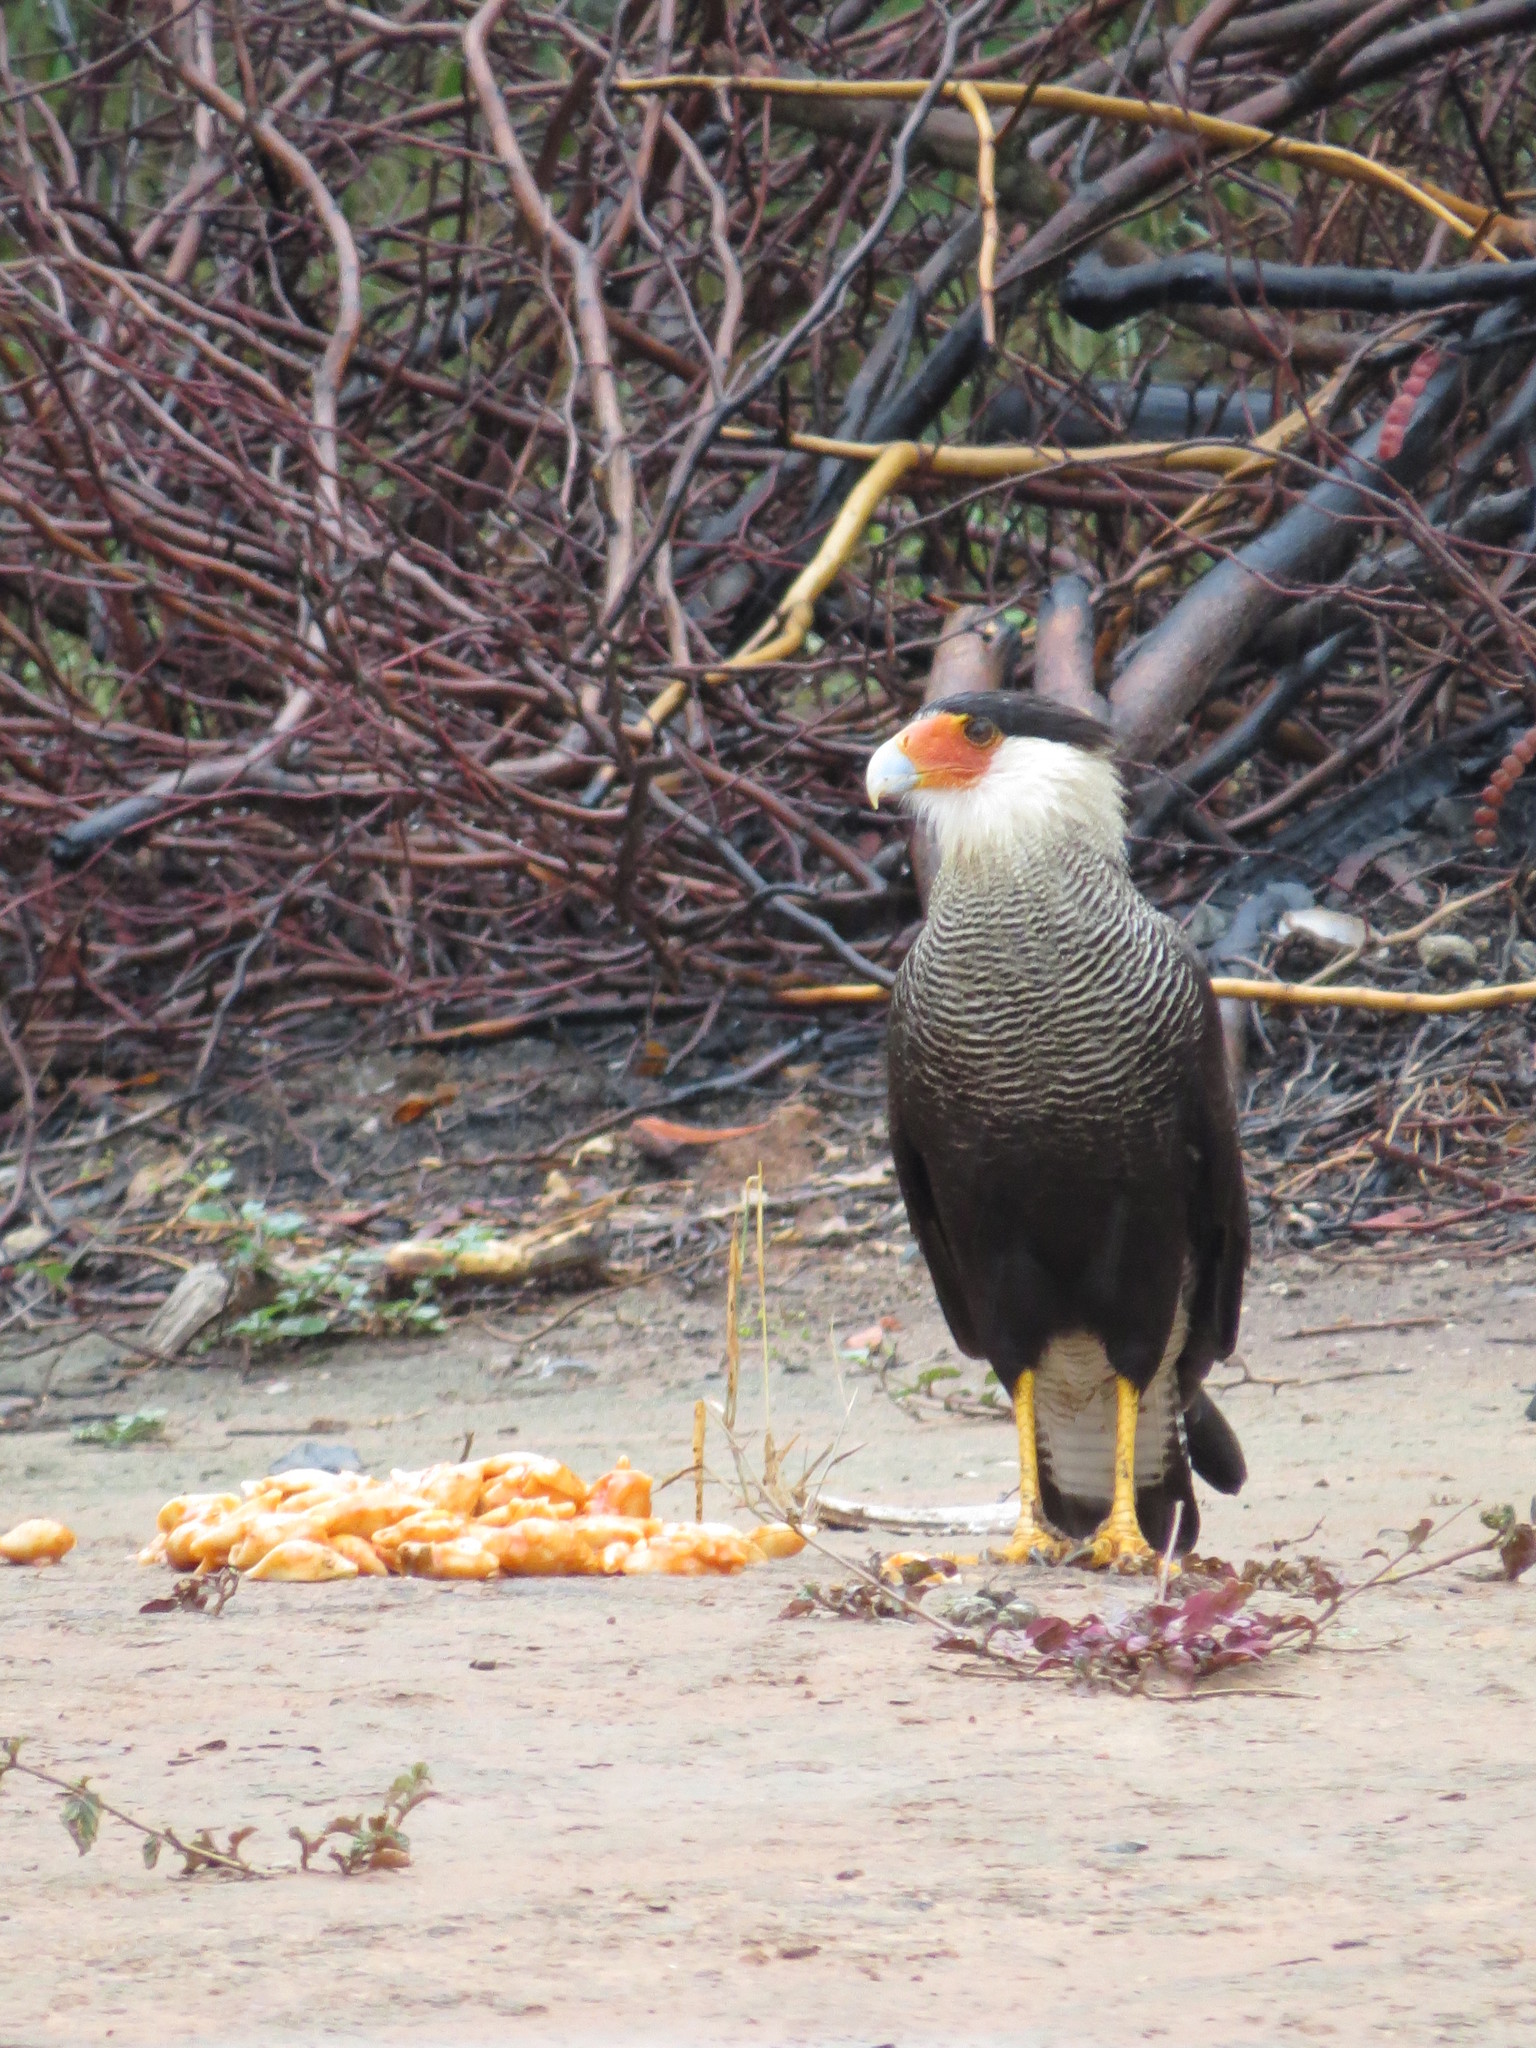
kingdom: Animalia
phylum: Chordata
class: Aves
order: Falconiformes
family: Falconidae
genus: Caracara
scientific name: Caracara plancus
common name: Southern caracara
